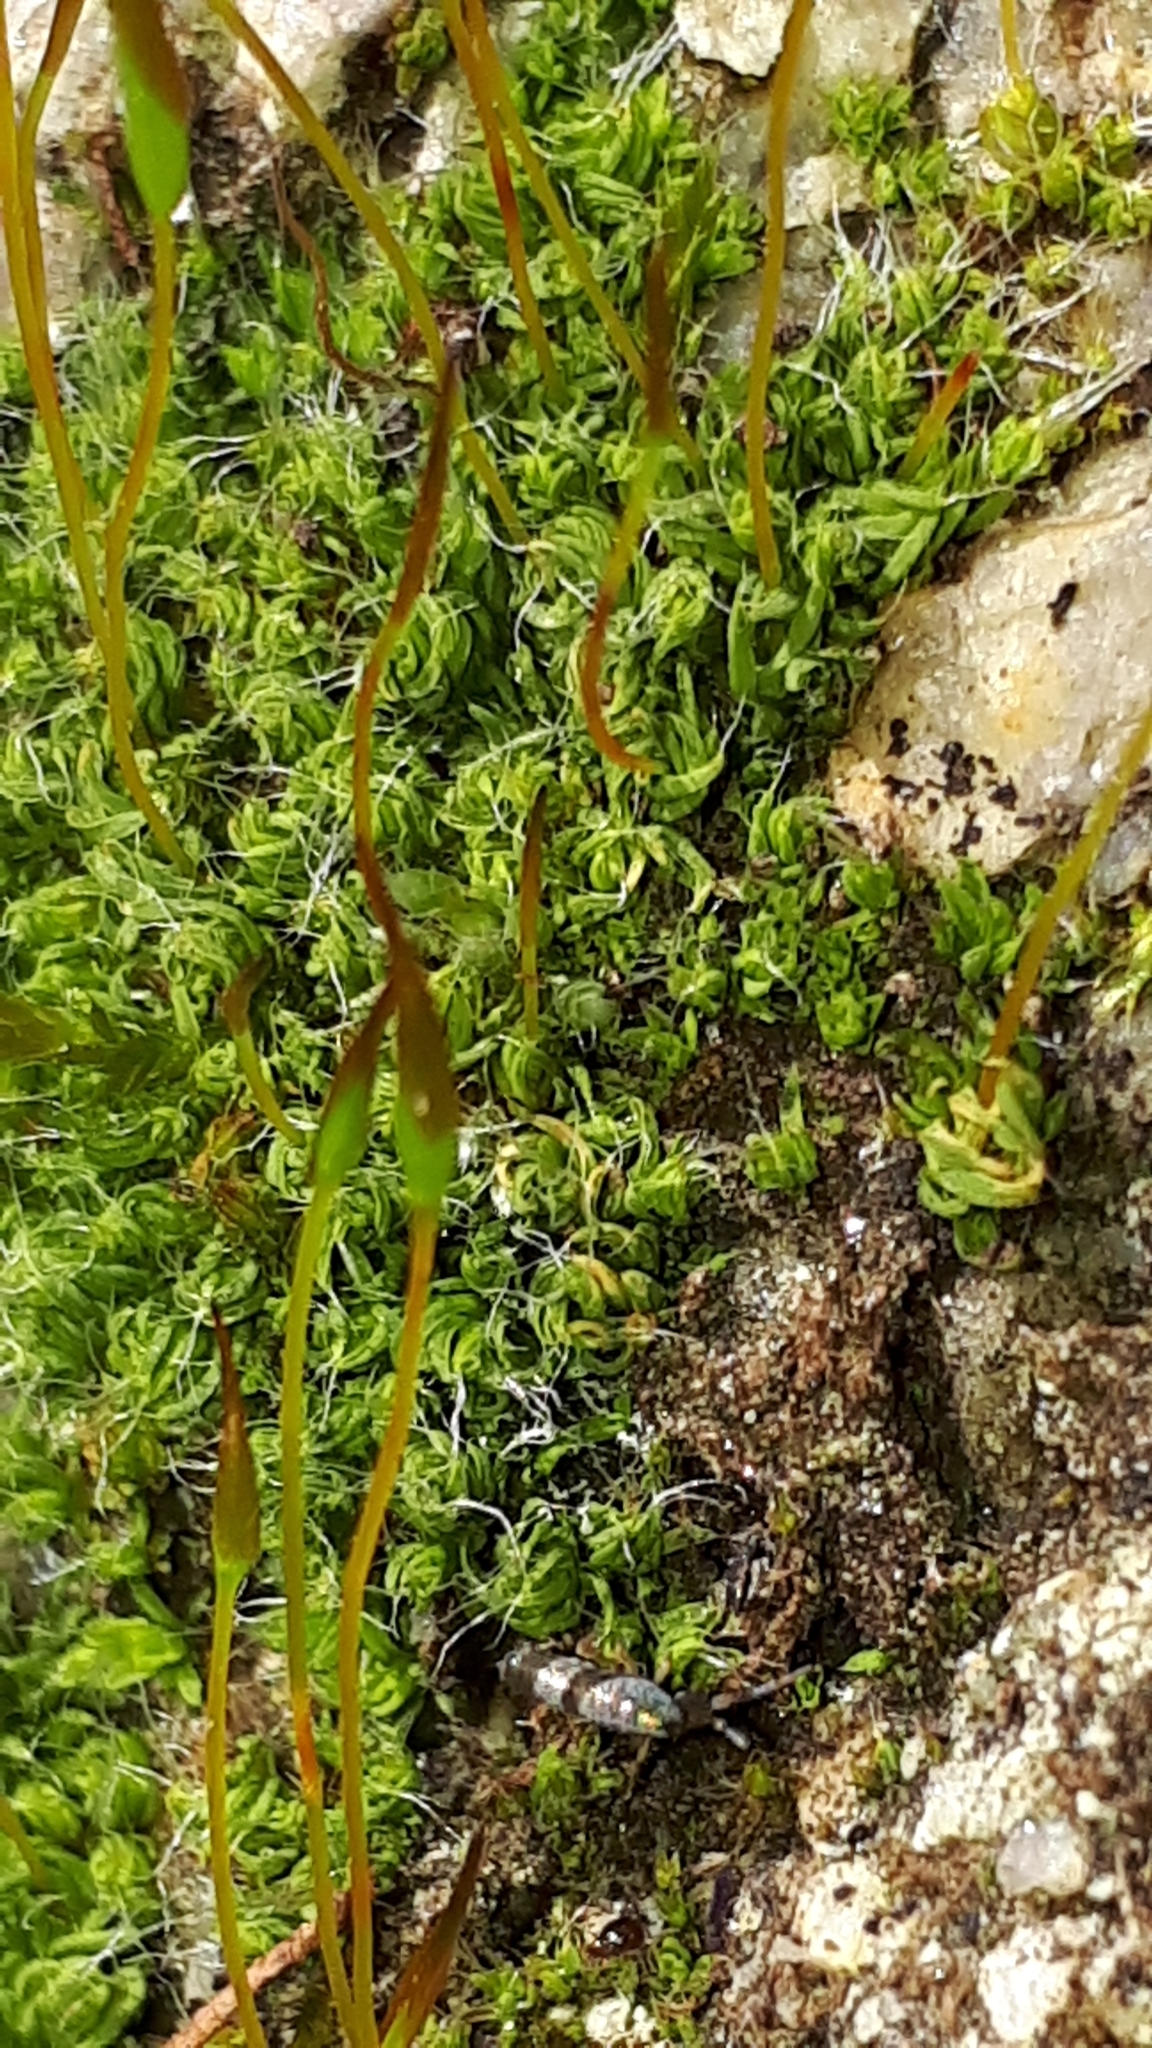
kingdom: Plantae
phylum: Bryophyta
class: Bryopsida
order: Pottiales
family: Pottiaceae
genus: Tortula
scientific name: Tortula muralis
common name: Wall screw-moss
